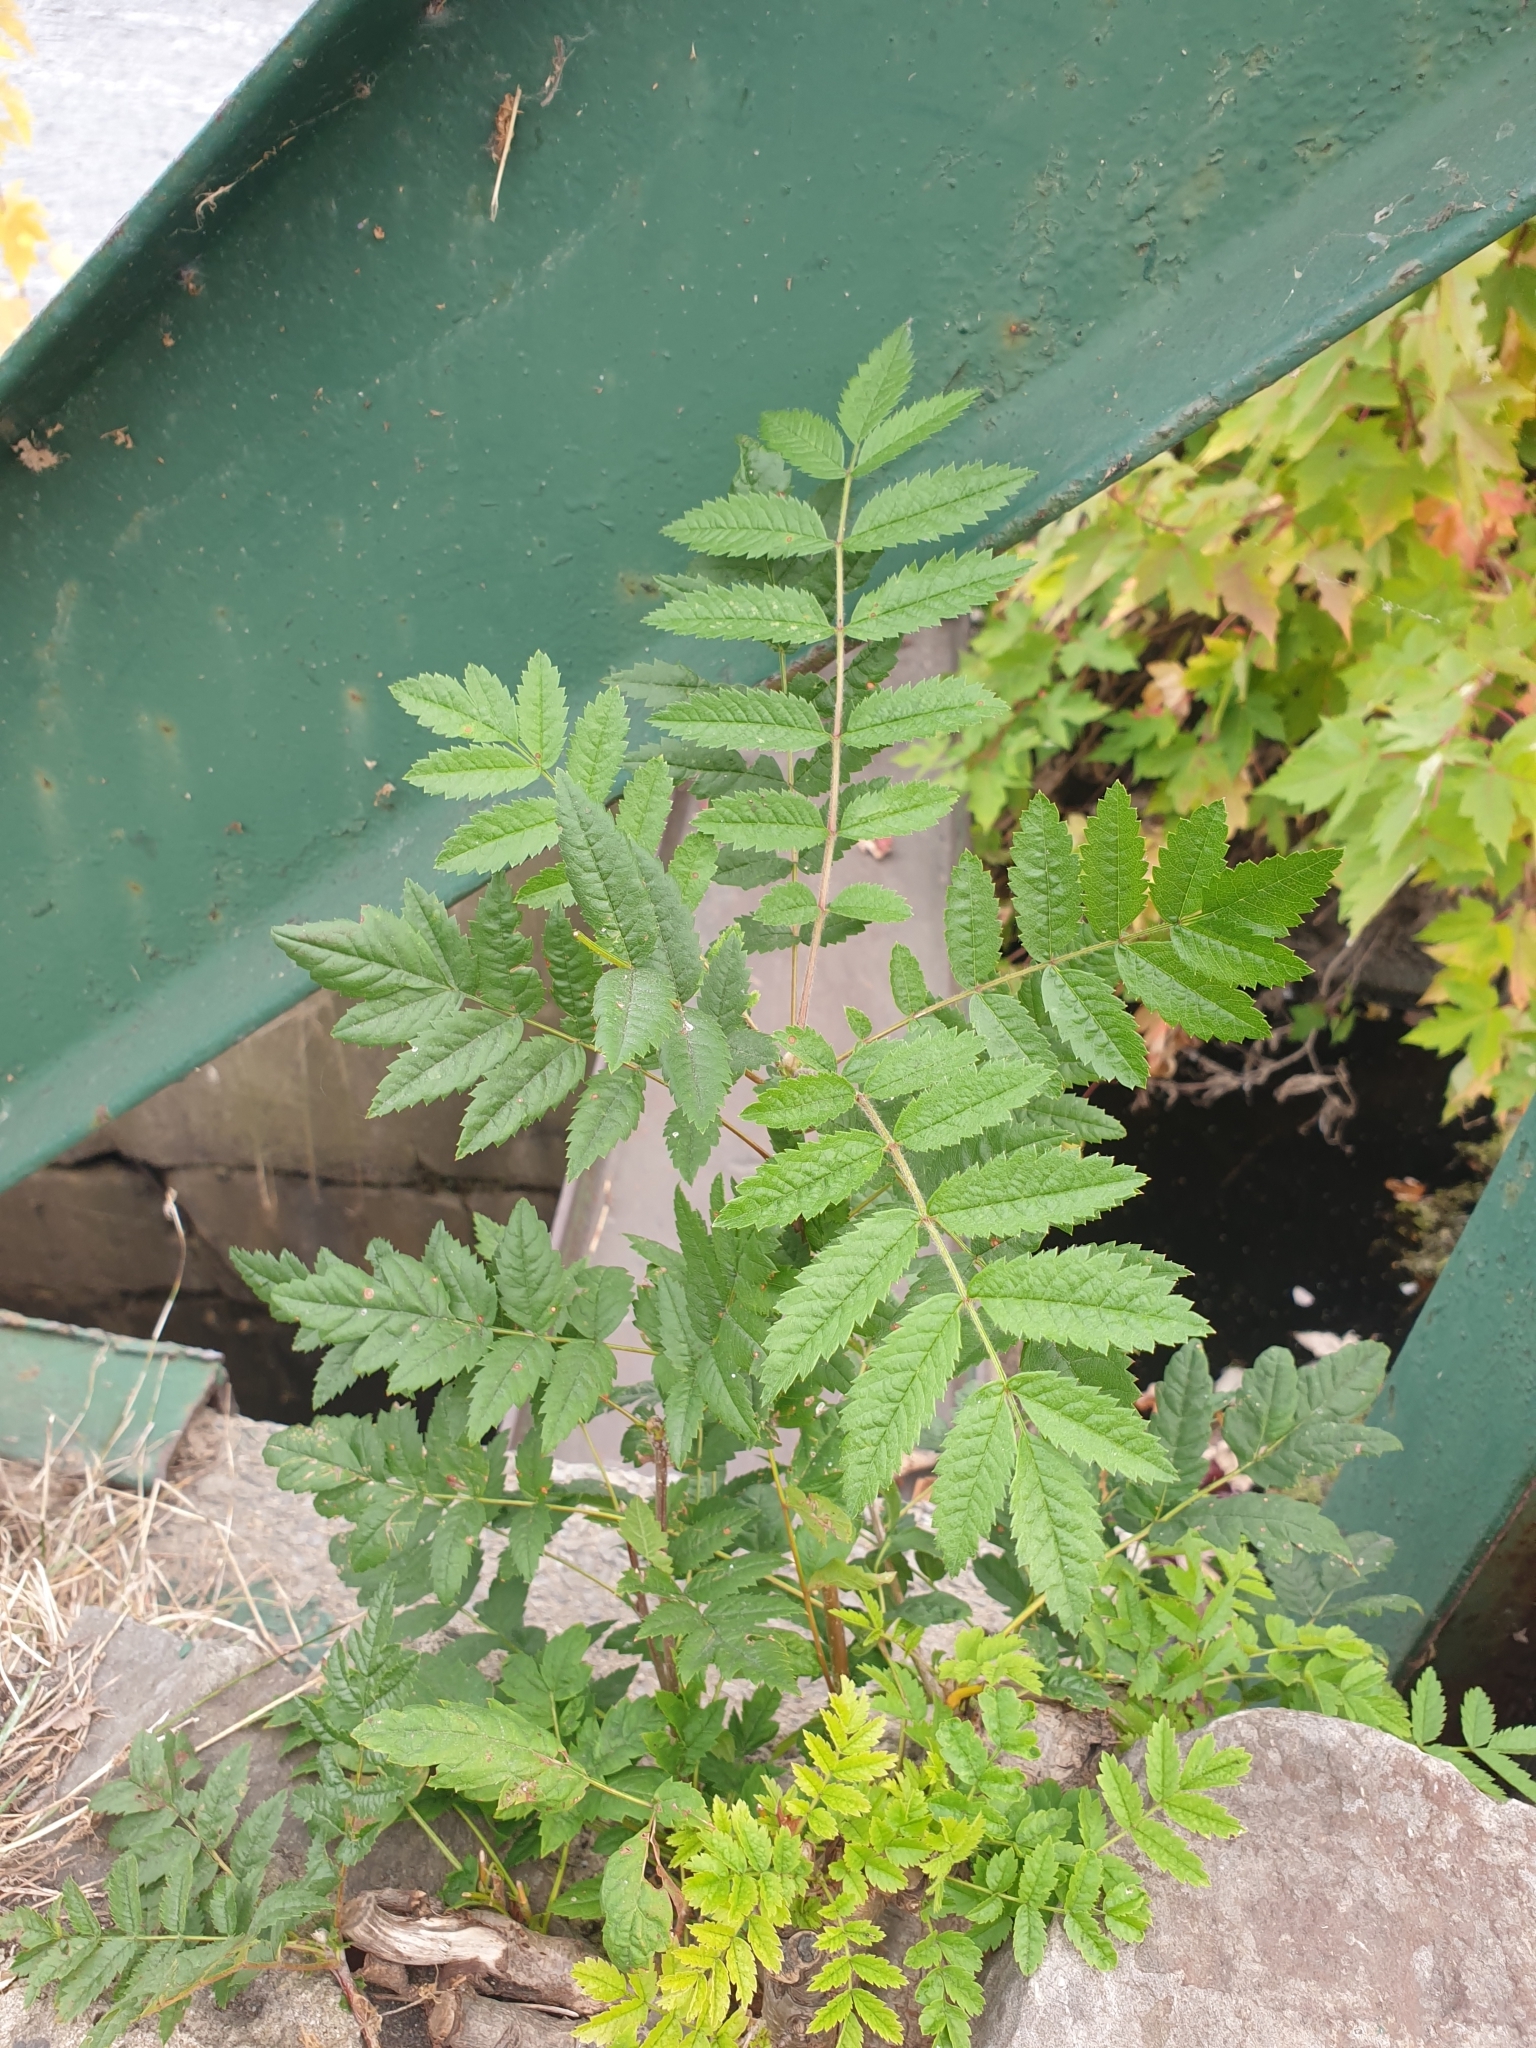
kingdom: Plantae
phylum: Tracheophyta
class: Magnoliopsida
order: Rosales
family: Rosaceae
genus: Sorbus
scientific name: Sorbus aucuparia
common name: Rowan
